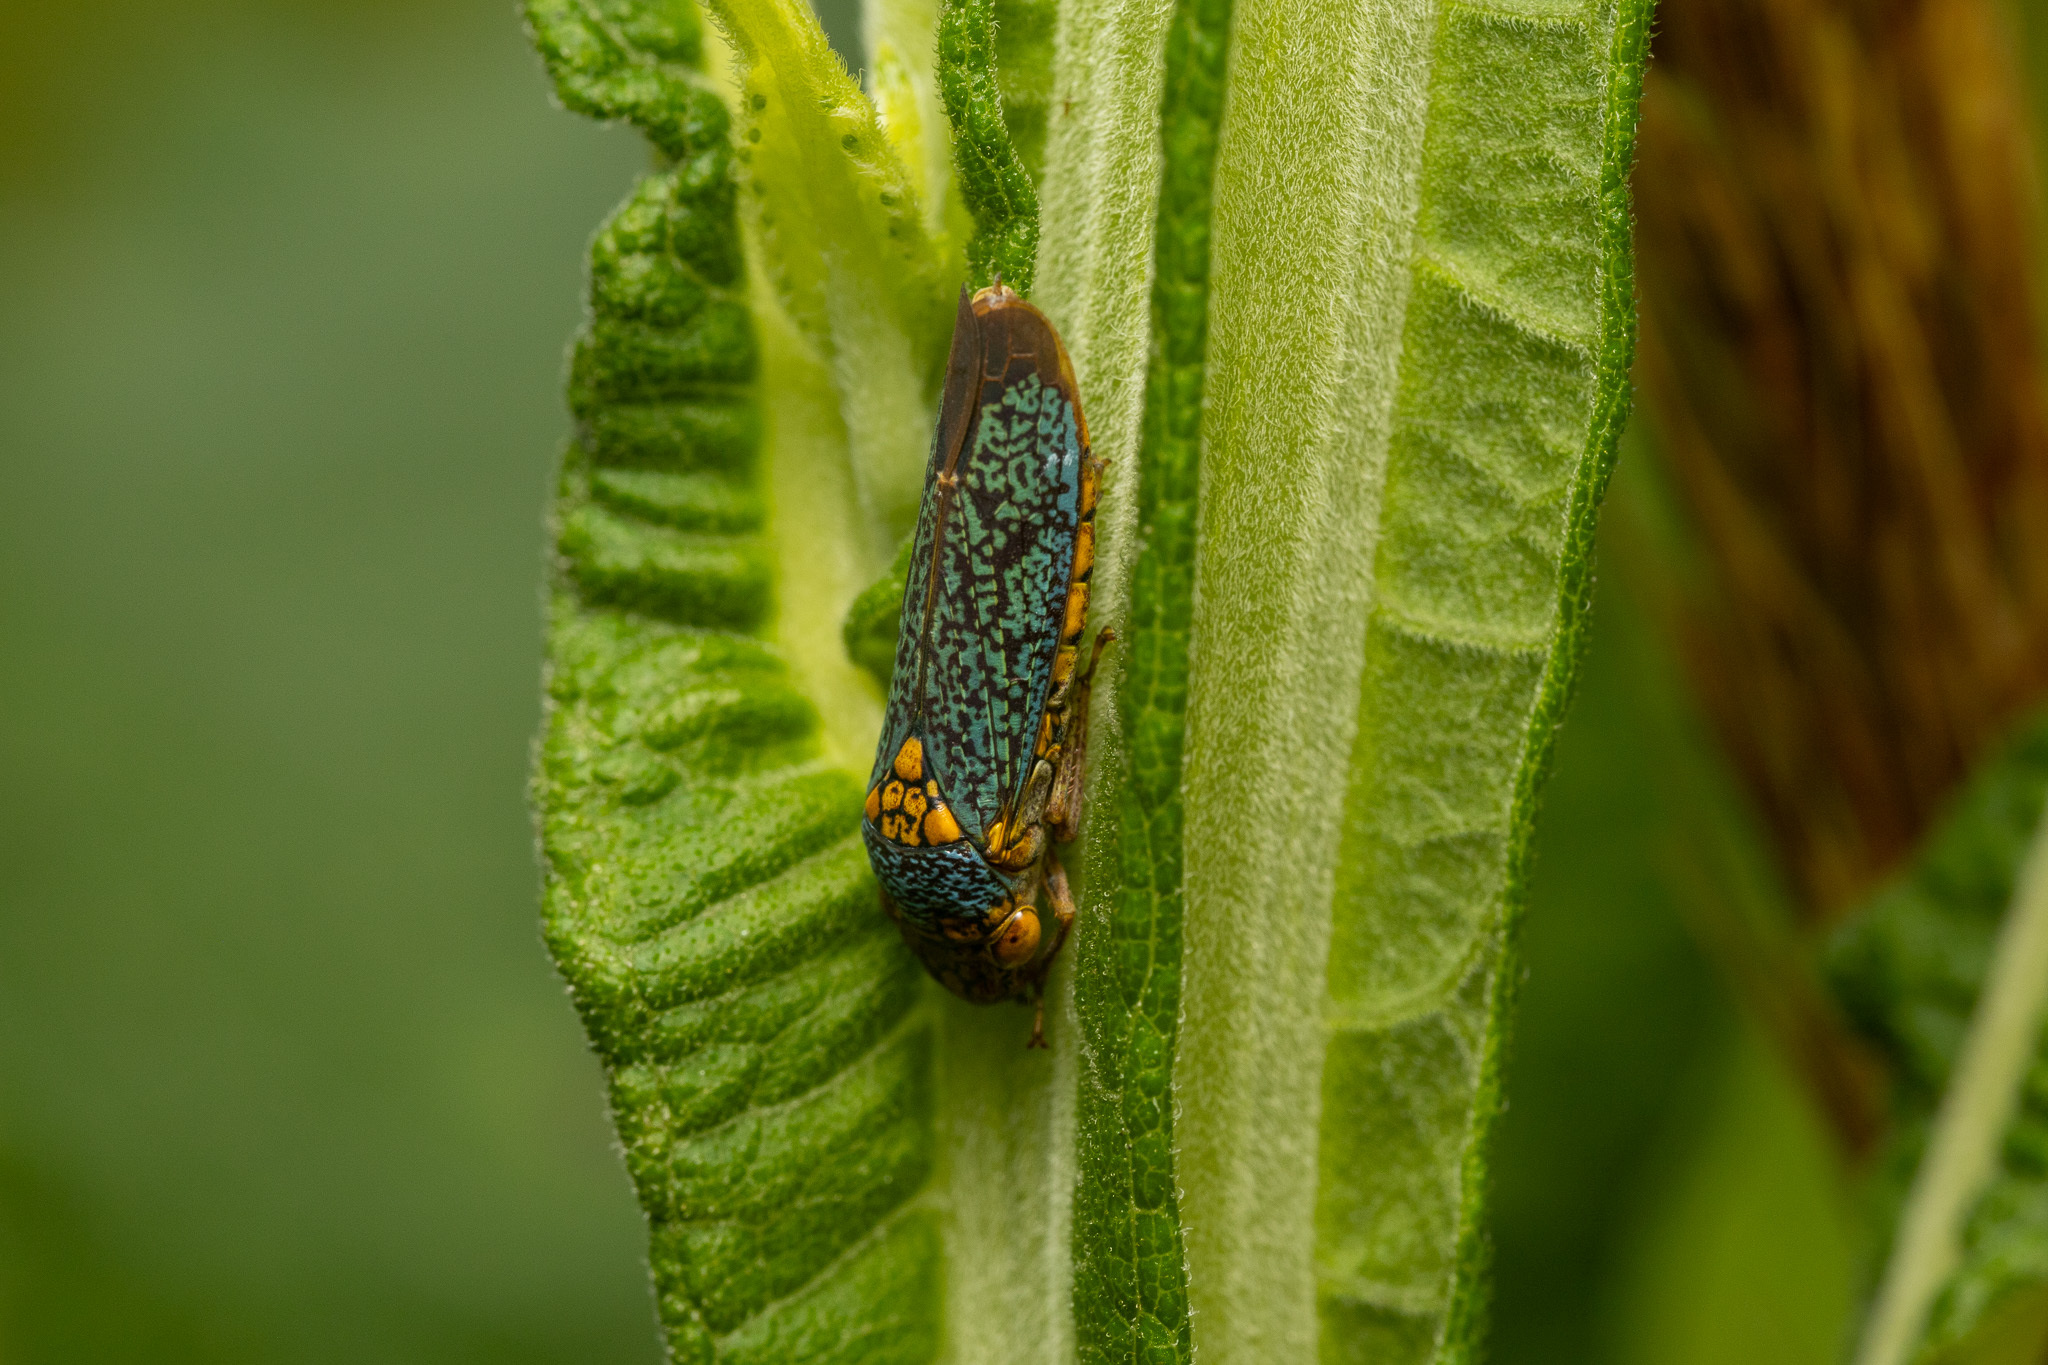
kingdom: Animalia
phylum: Arthropoda
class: Insecta
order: Hemiptera
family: Cicadellidae
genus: Oncometopia
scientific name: Oncometopia orbona
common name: Broad-headed sharpshooter
